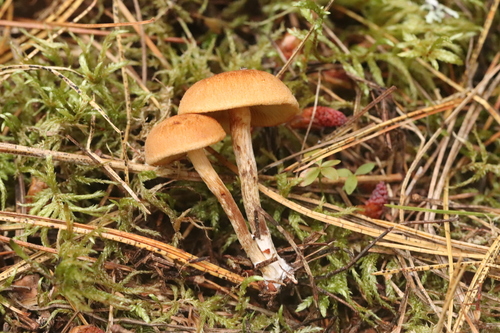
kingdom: Fungi
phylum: Basidiomycota
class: Agaricomycetes
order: Agaricales
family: Hymenogastraceae
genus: Gymnopilus
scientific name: Gymnopilus penetrans
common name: Common rustgill
